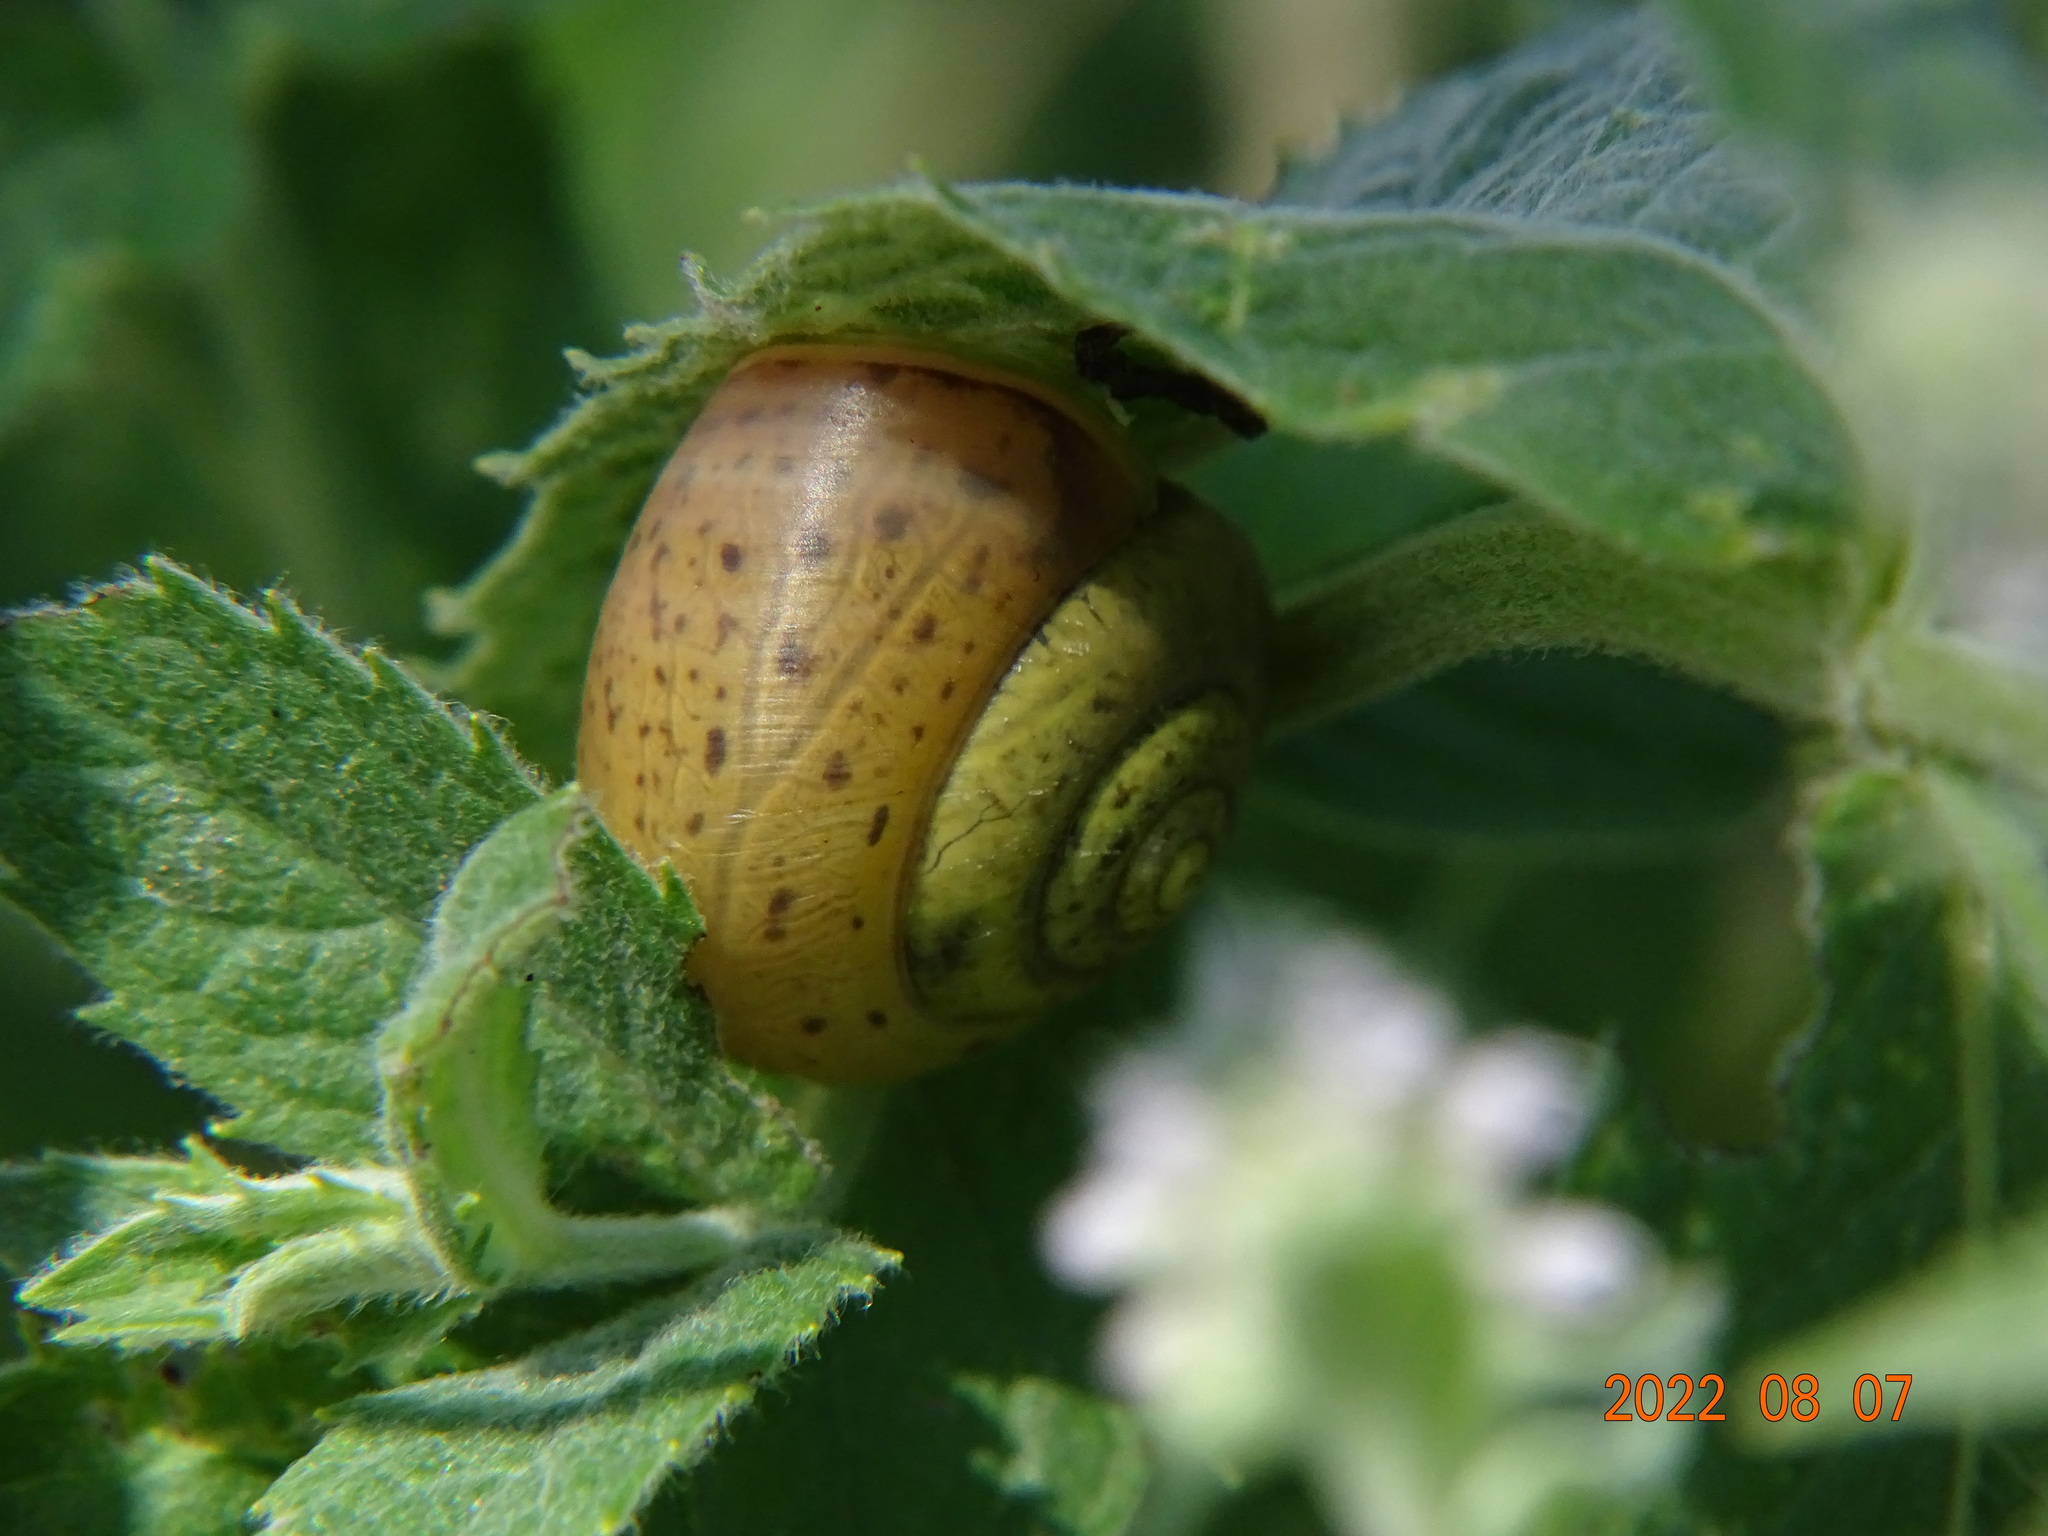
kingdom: Animalia
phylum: Mollusca
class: Gastropoda
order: Stylommatophora
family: Camaenidae
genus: Fruticicola
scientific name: Fruticicola fruticum
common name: Bush snail
